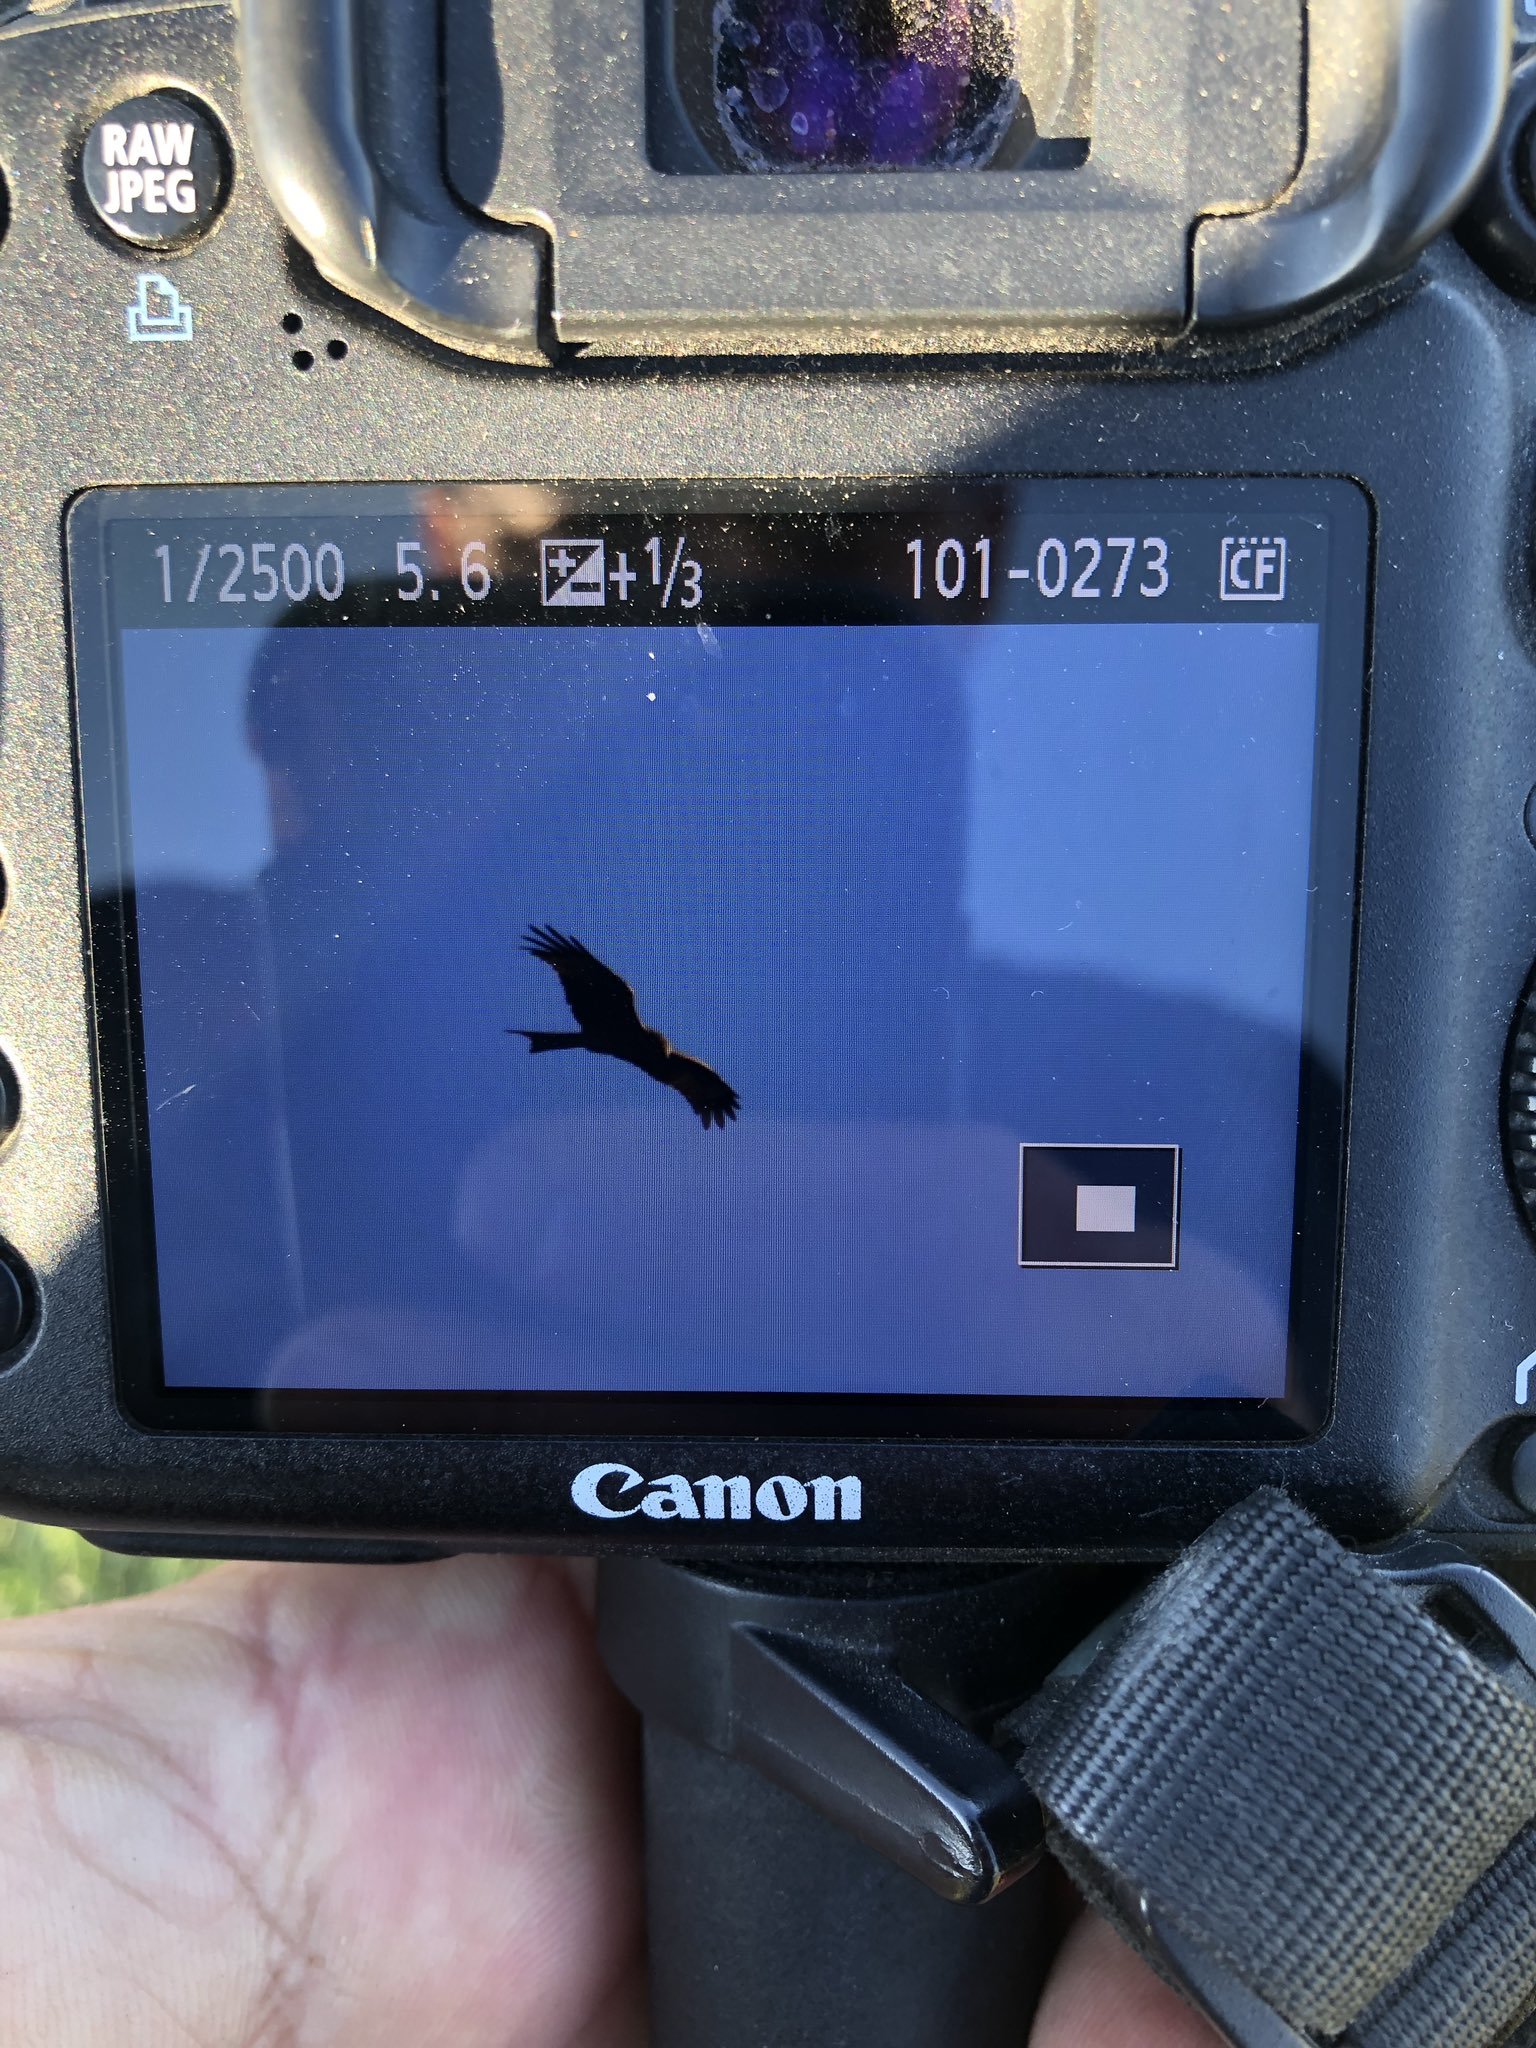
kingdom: Animalia
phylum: Chordata
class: Aves
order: Accipitriformes
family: Accipitridae
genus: Milvus
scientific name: Milvus milvus
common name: Red kite
